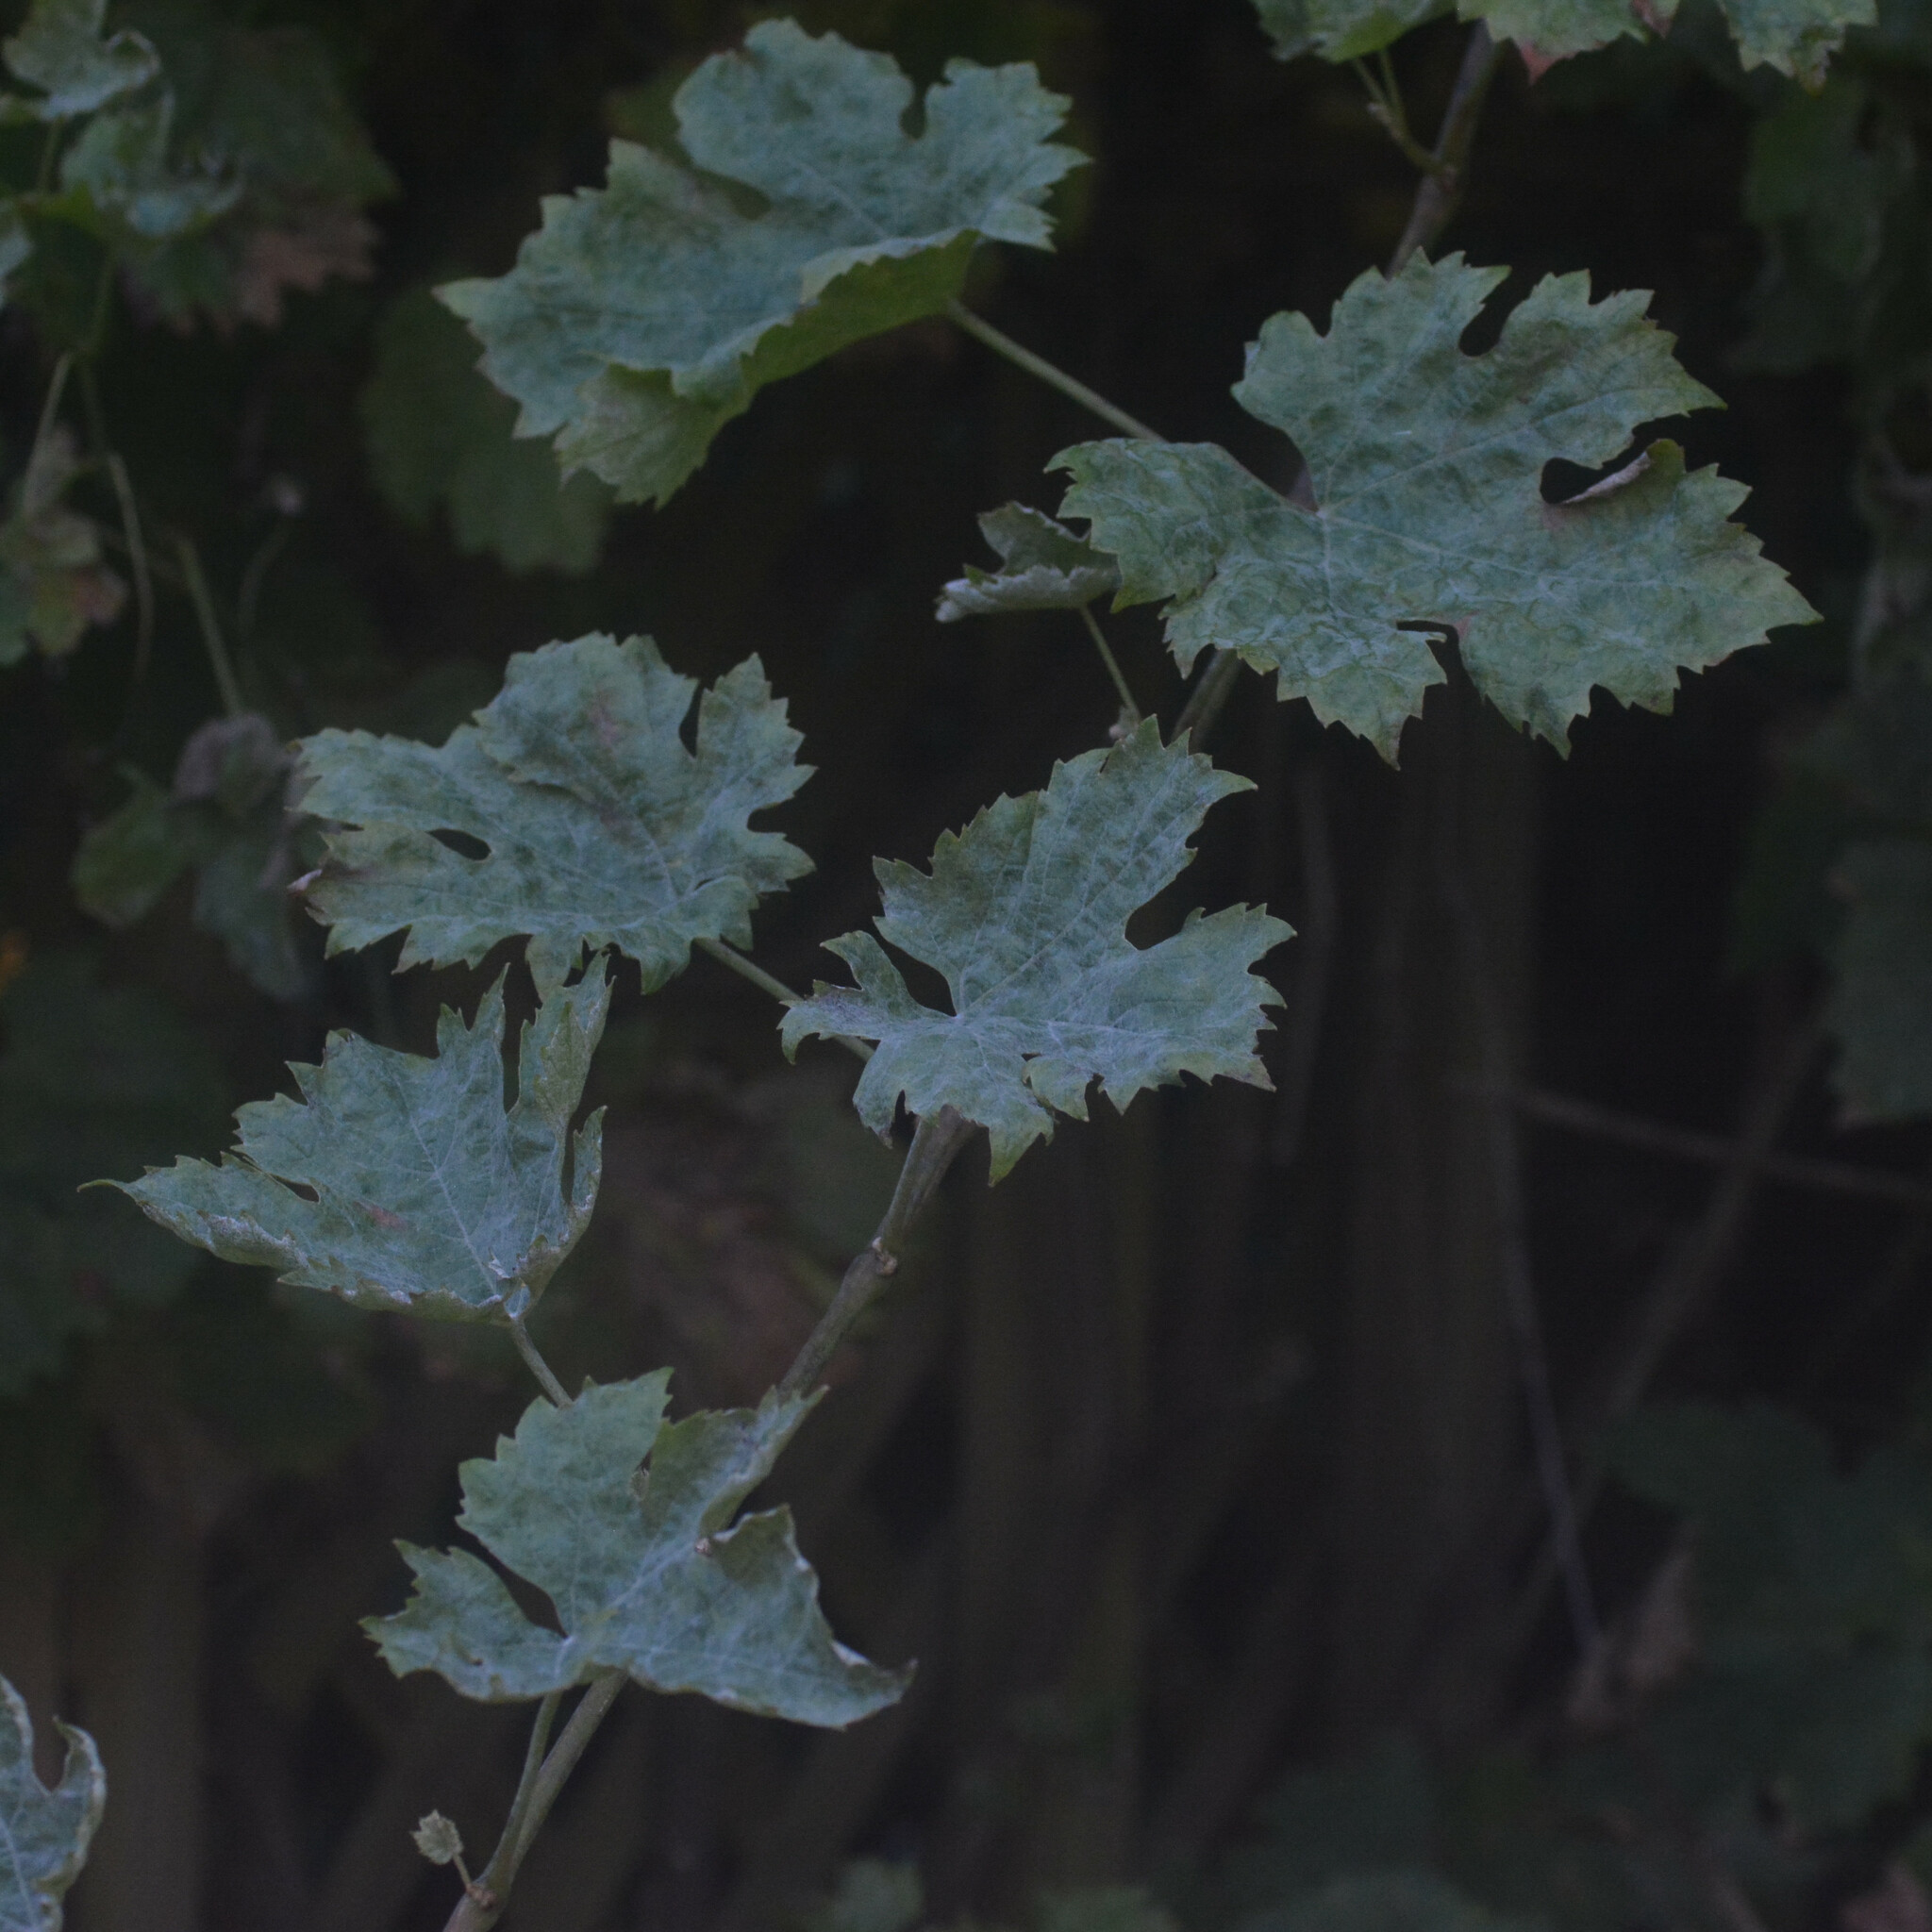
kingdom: Fungi
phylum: Ascomycota
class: Leotiomycetes
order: Helotiales
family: Erysiphaceae
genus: Erysiphe
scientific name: Erysiphe necator
